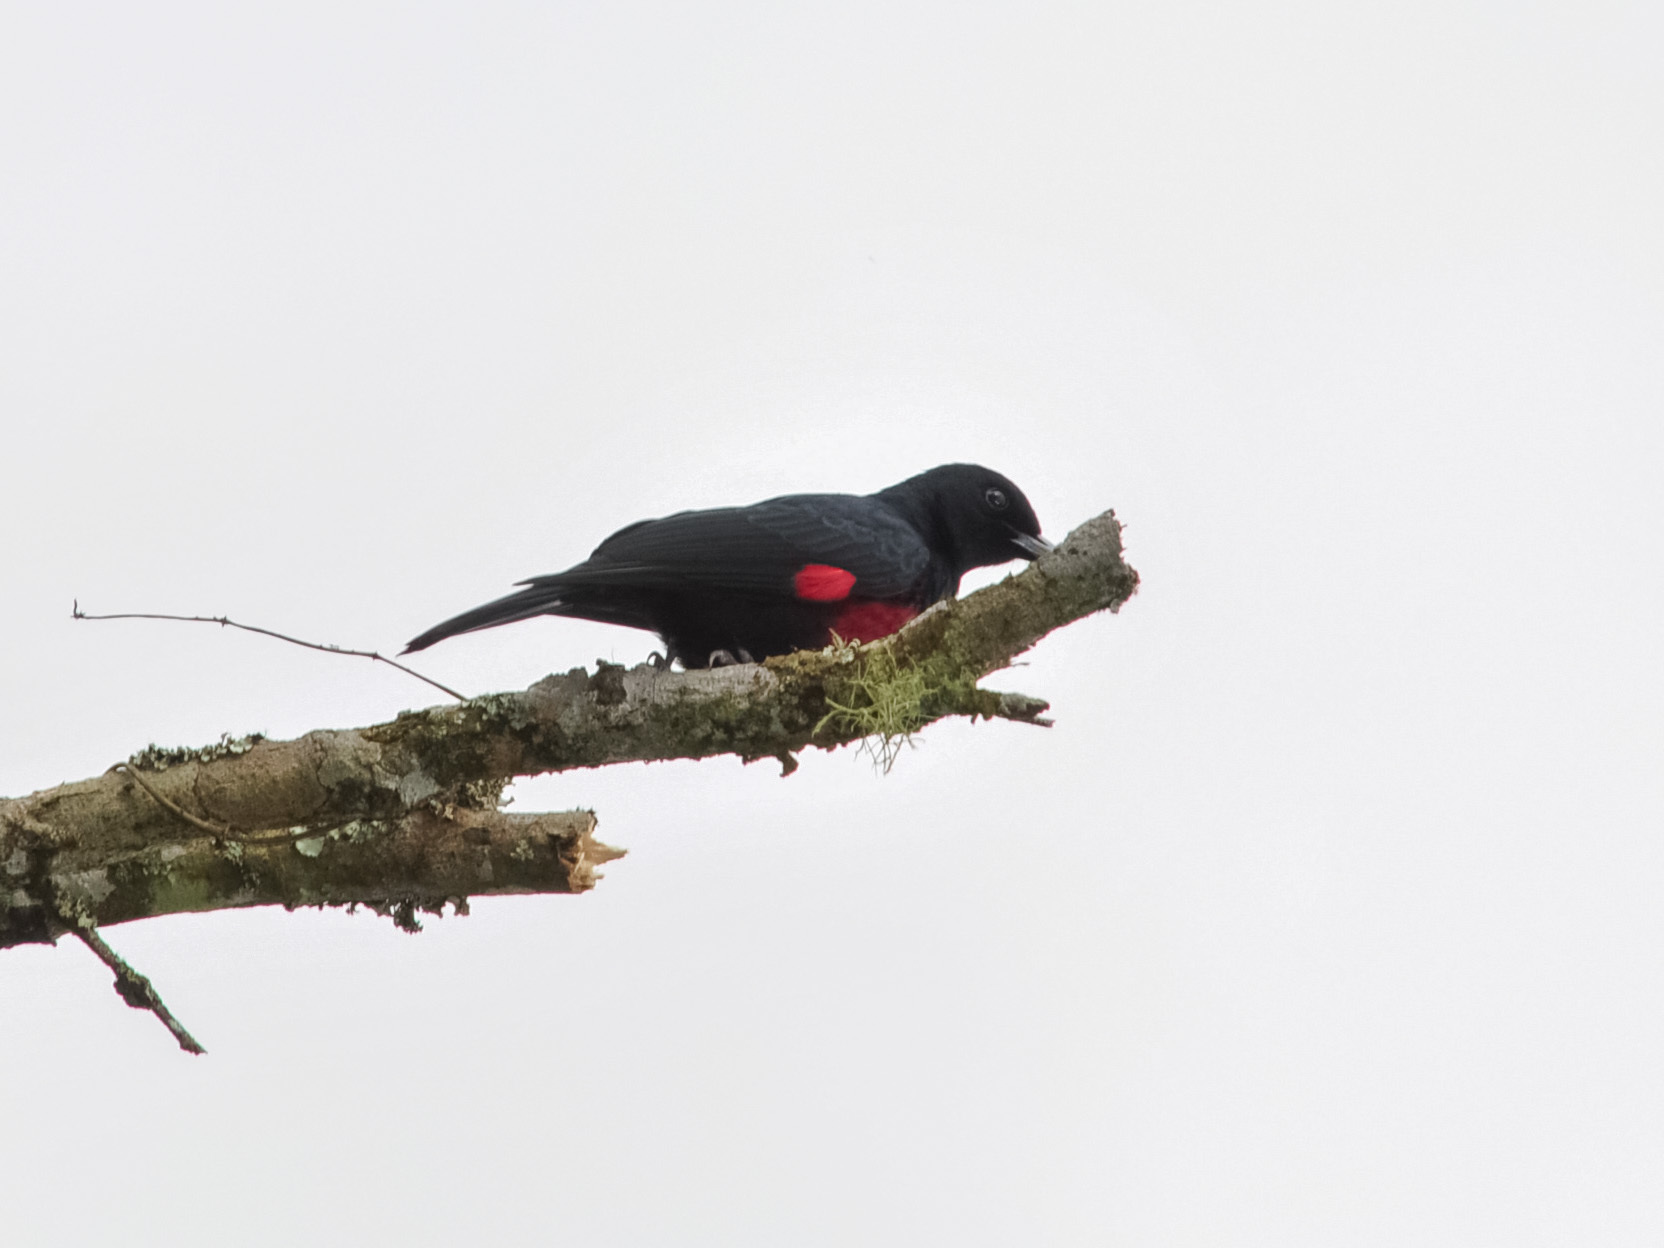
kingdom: Animalia
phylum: Chordata
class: Aves
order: Passeriformes
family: Oriolidae
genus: Oriolus
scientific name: Oriolus cruentus
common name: Black-and-crimson oriole
